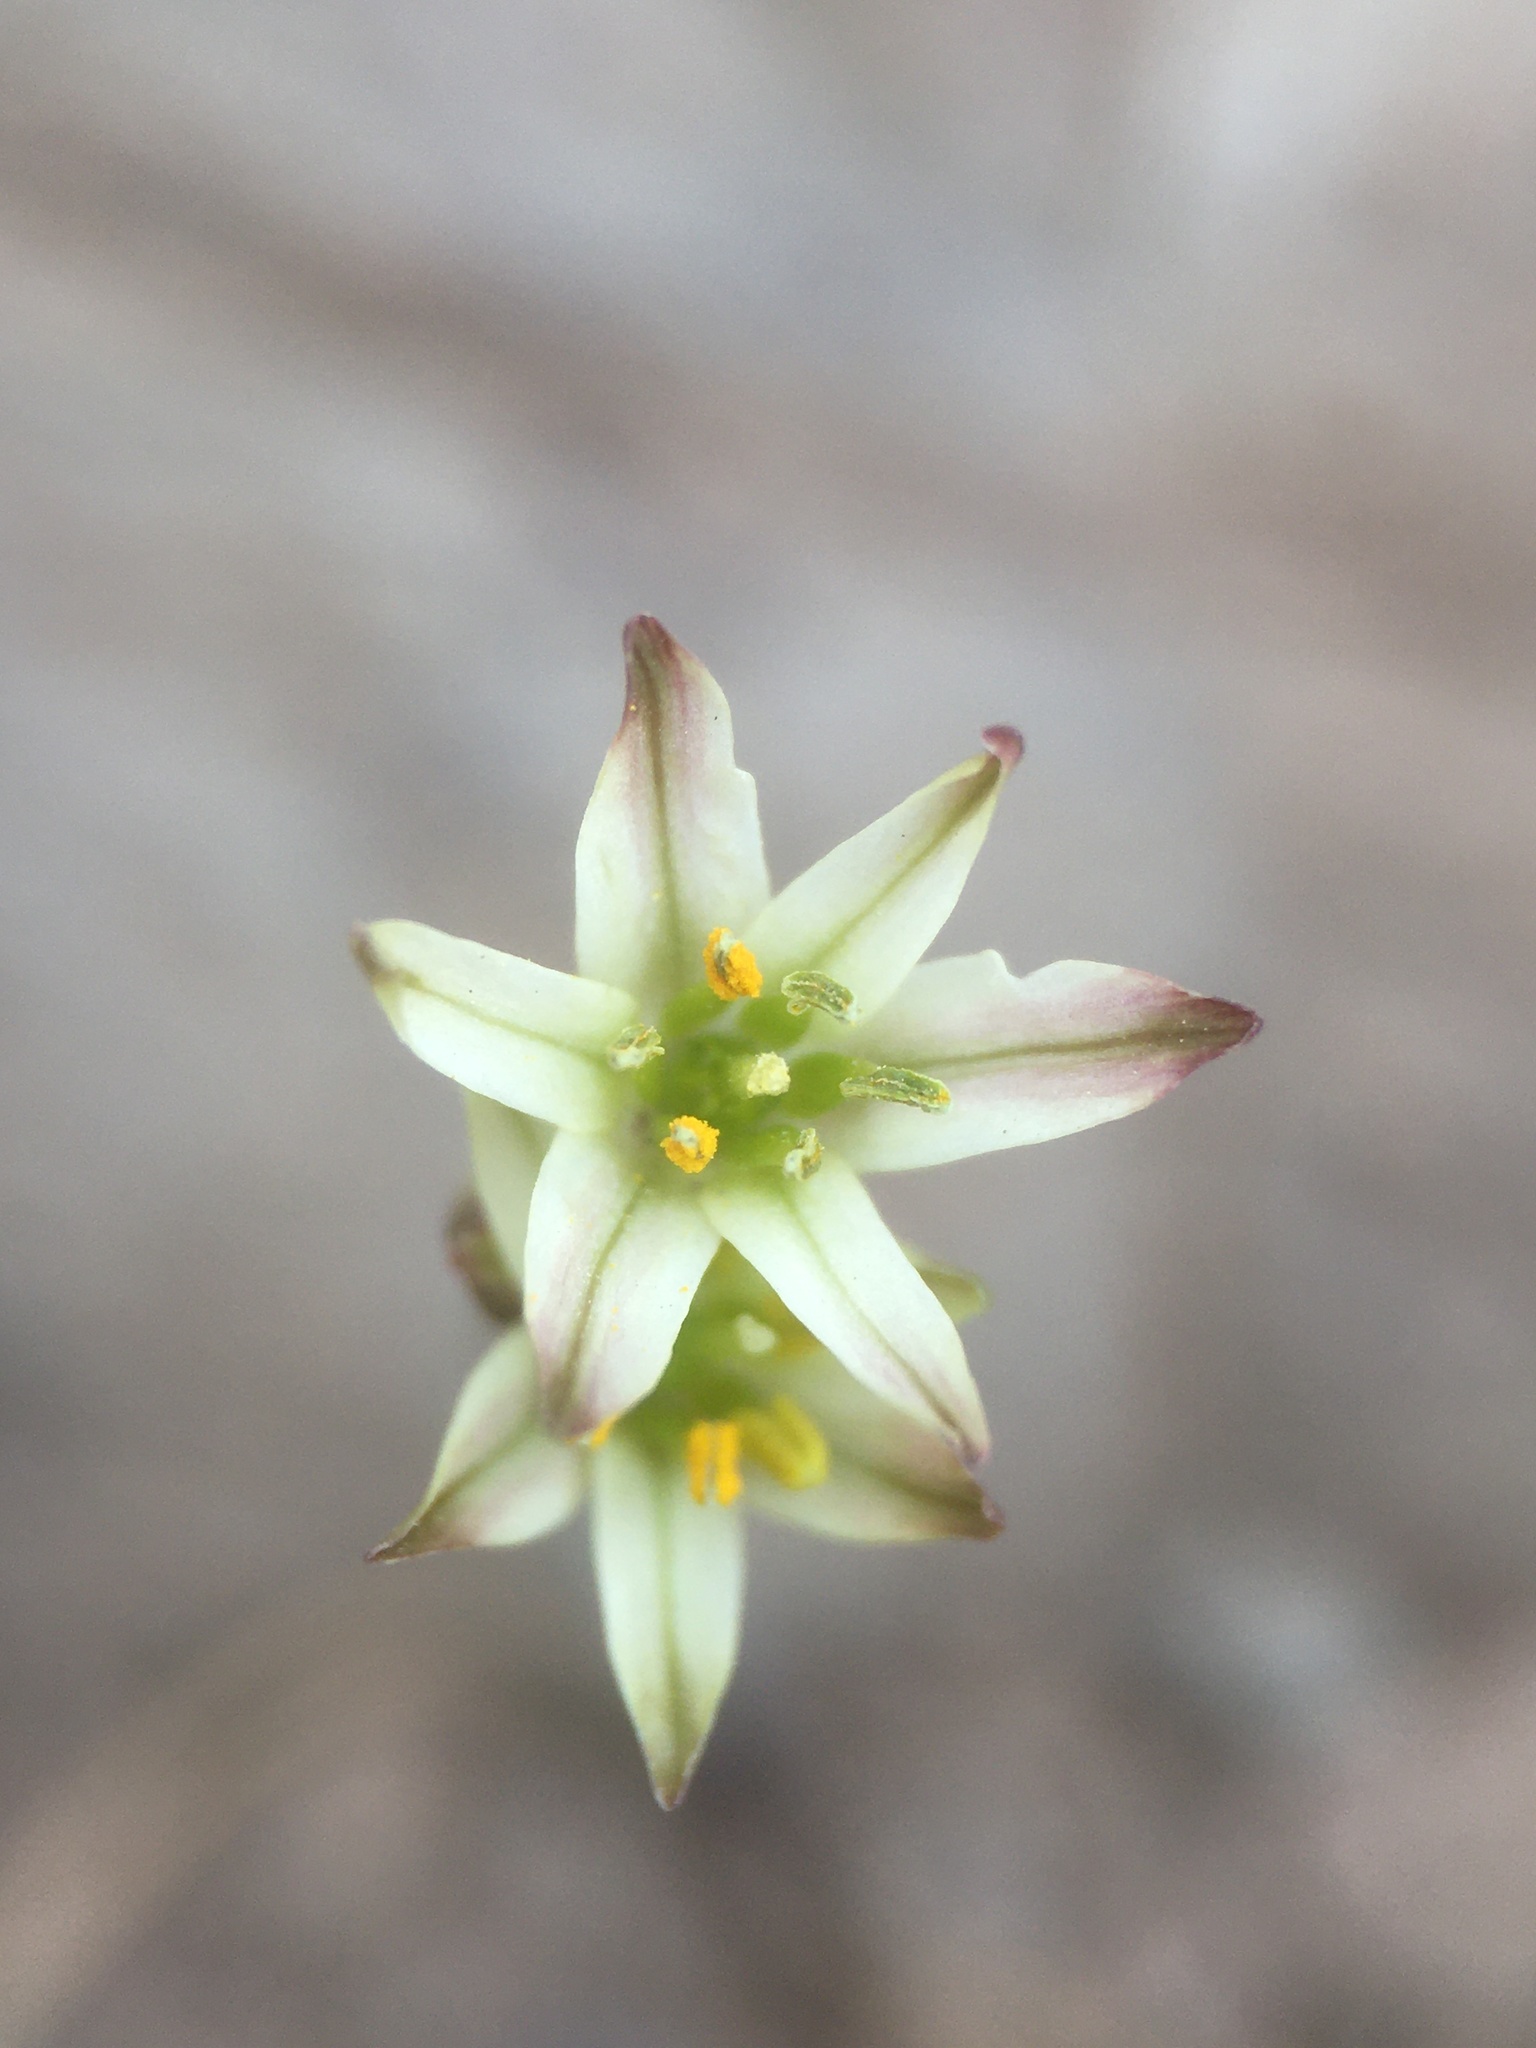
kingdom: Plantae
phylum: Tracheophyta
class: Liliopsida
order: Asparagales
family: Amaryllidaceae
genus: Latace
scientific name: Latace andina
